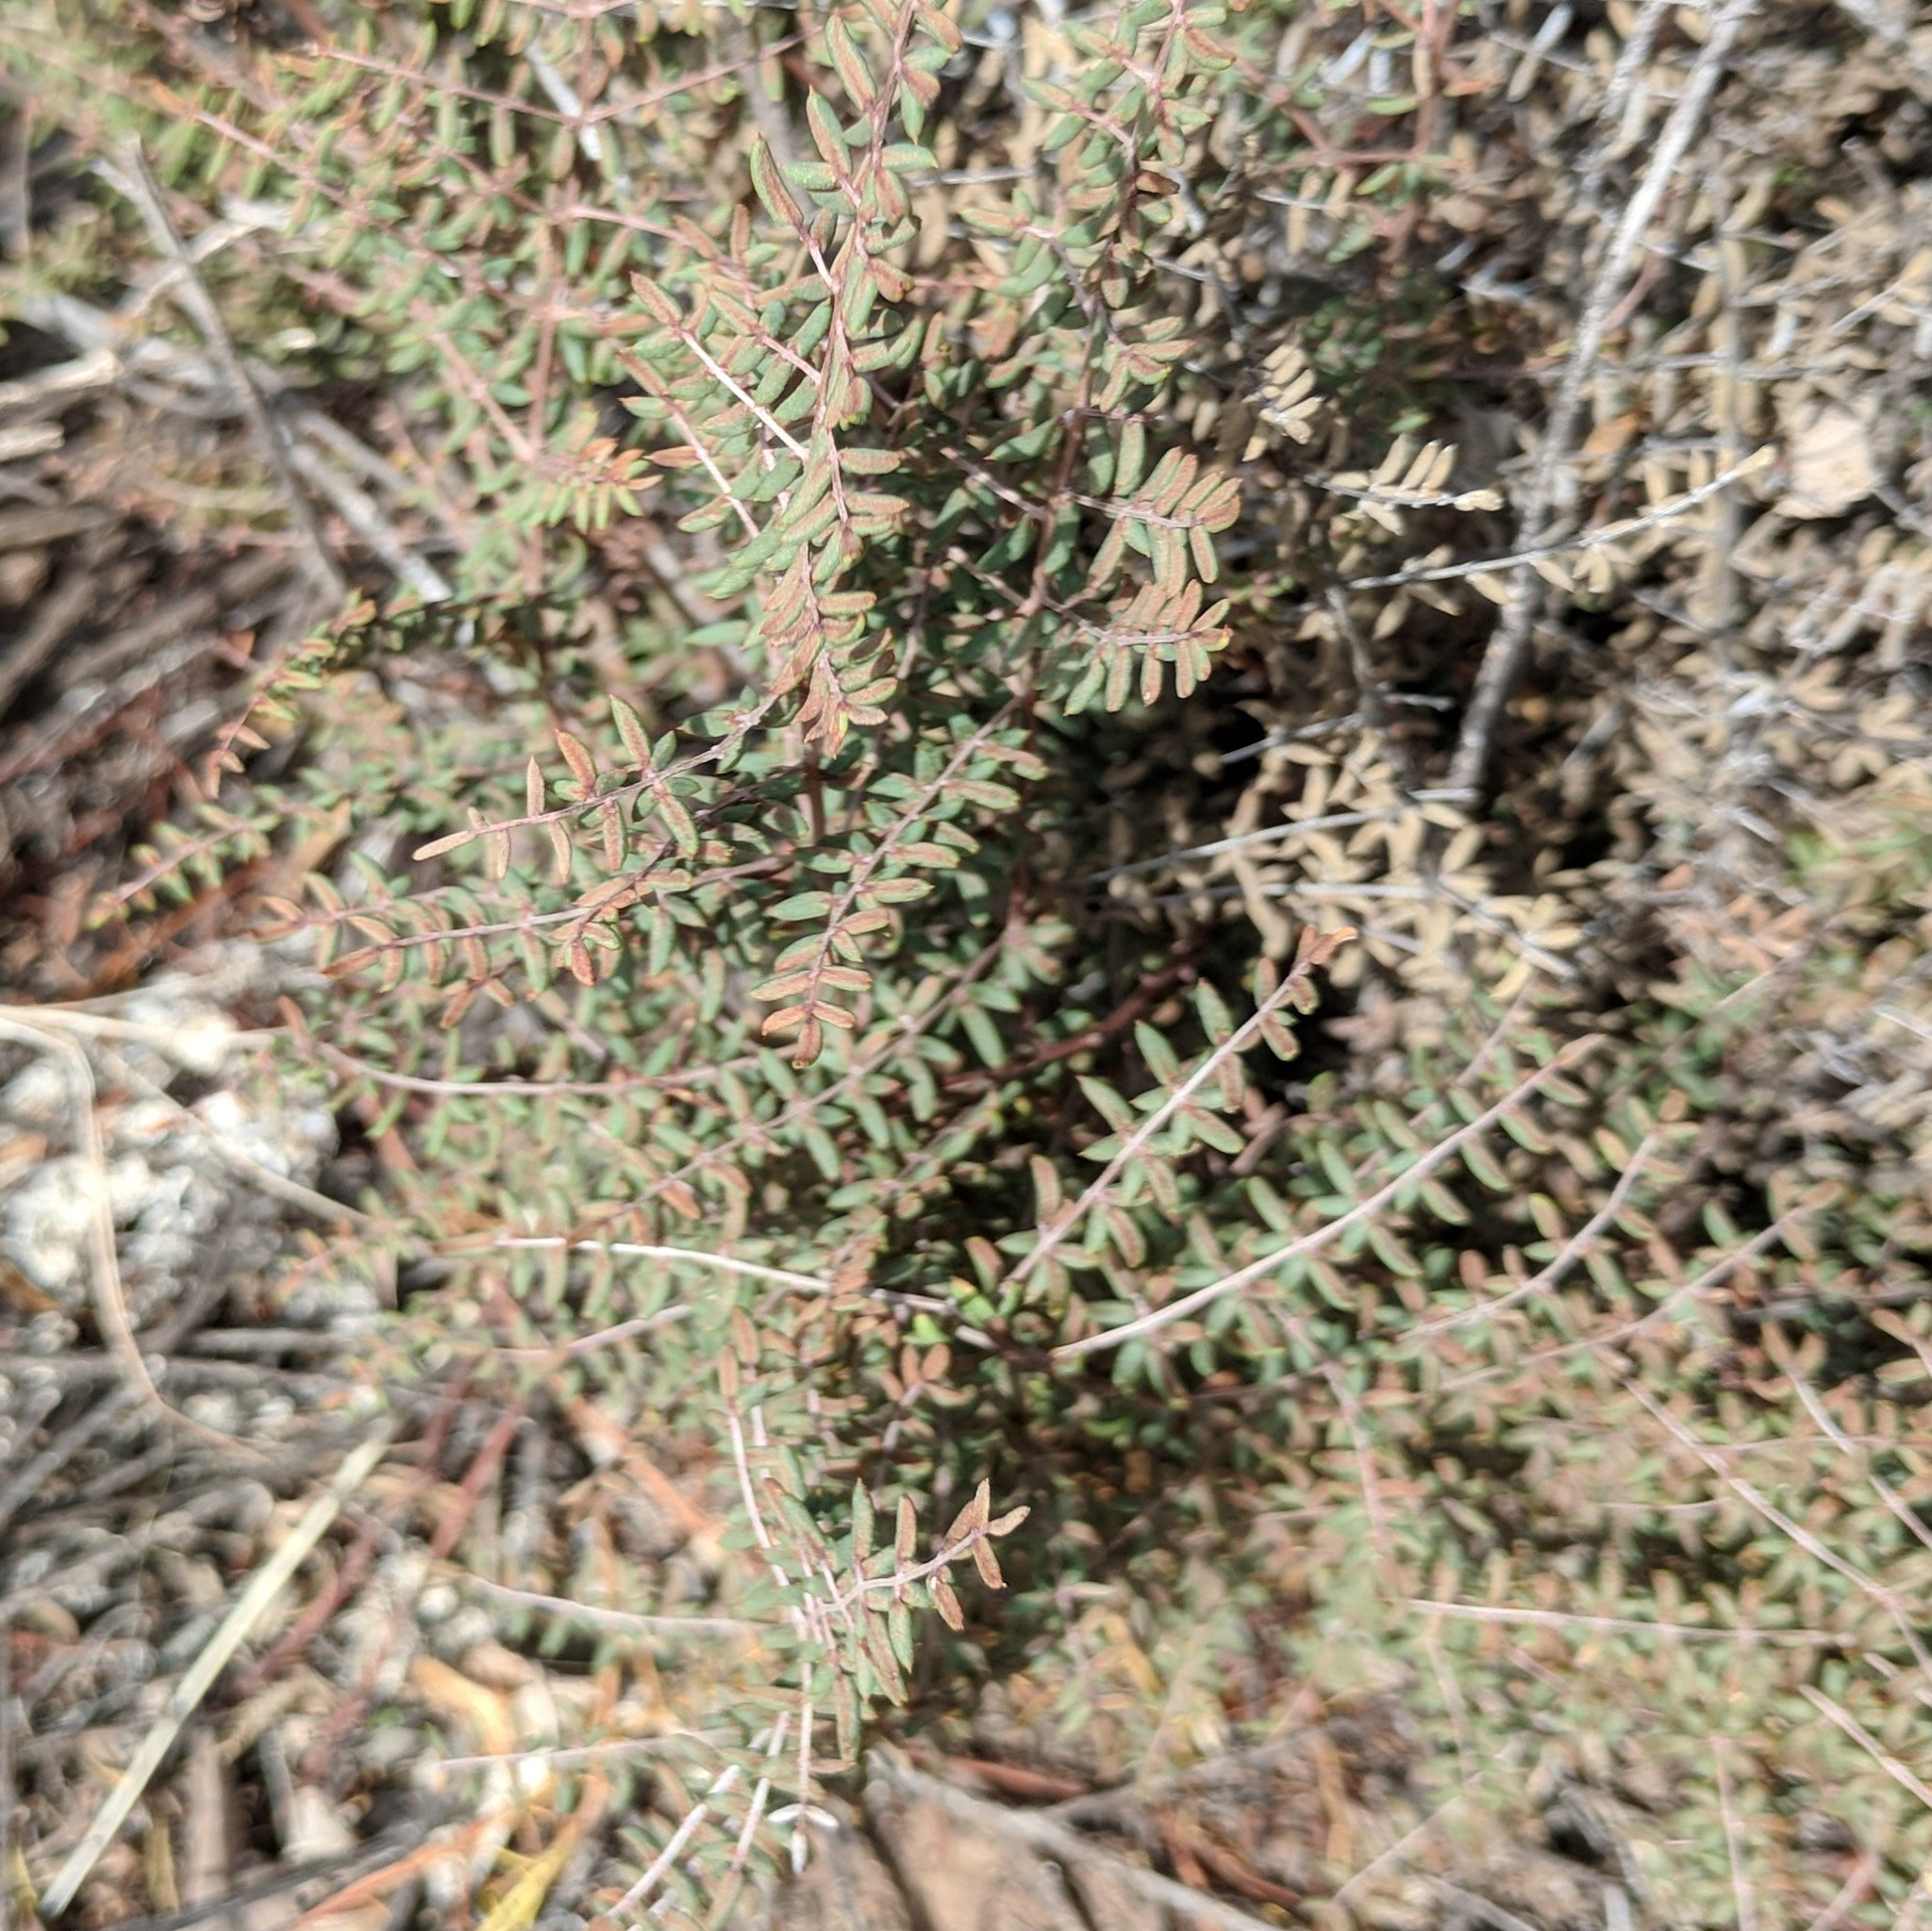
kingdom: Plantae
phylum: Tracheophyta
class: Polypodiopsida
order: Polypodiales
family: Pteridaceae
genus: Pellaea
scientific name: Pellaea mucronata
